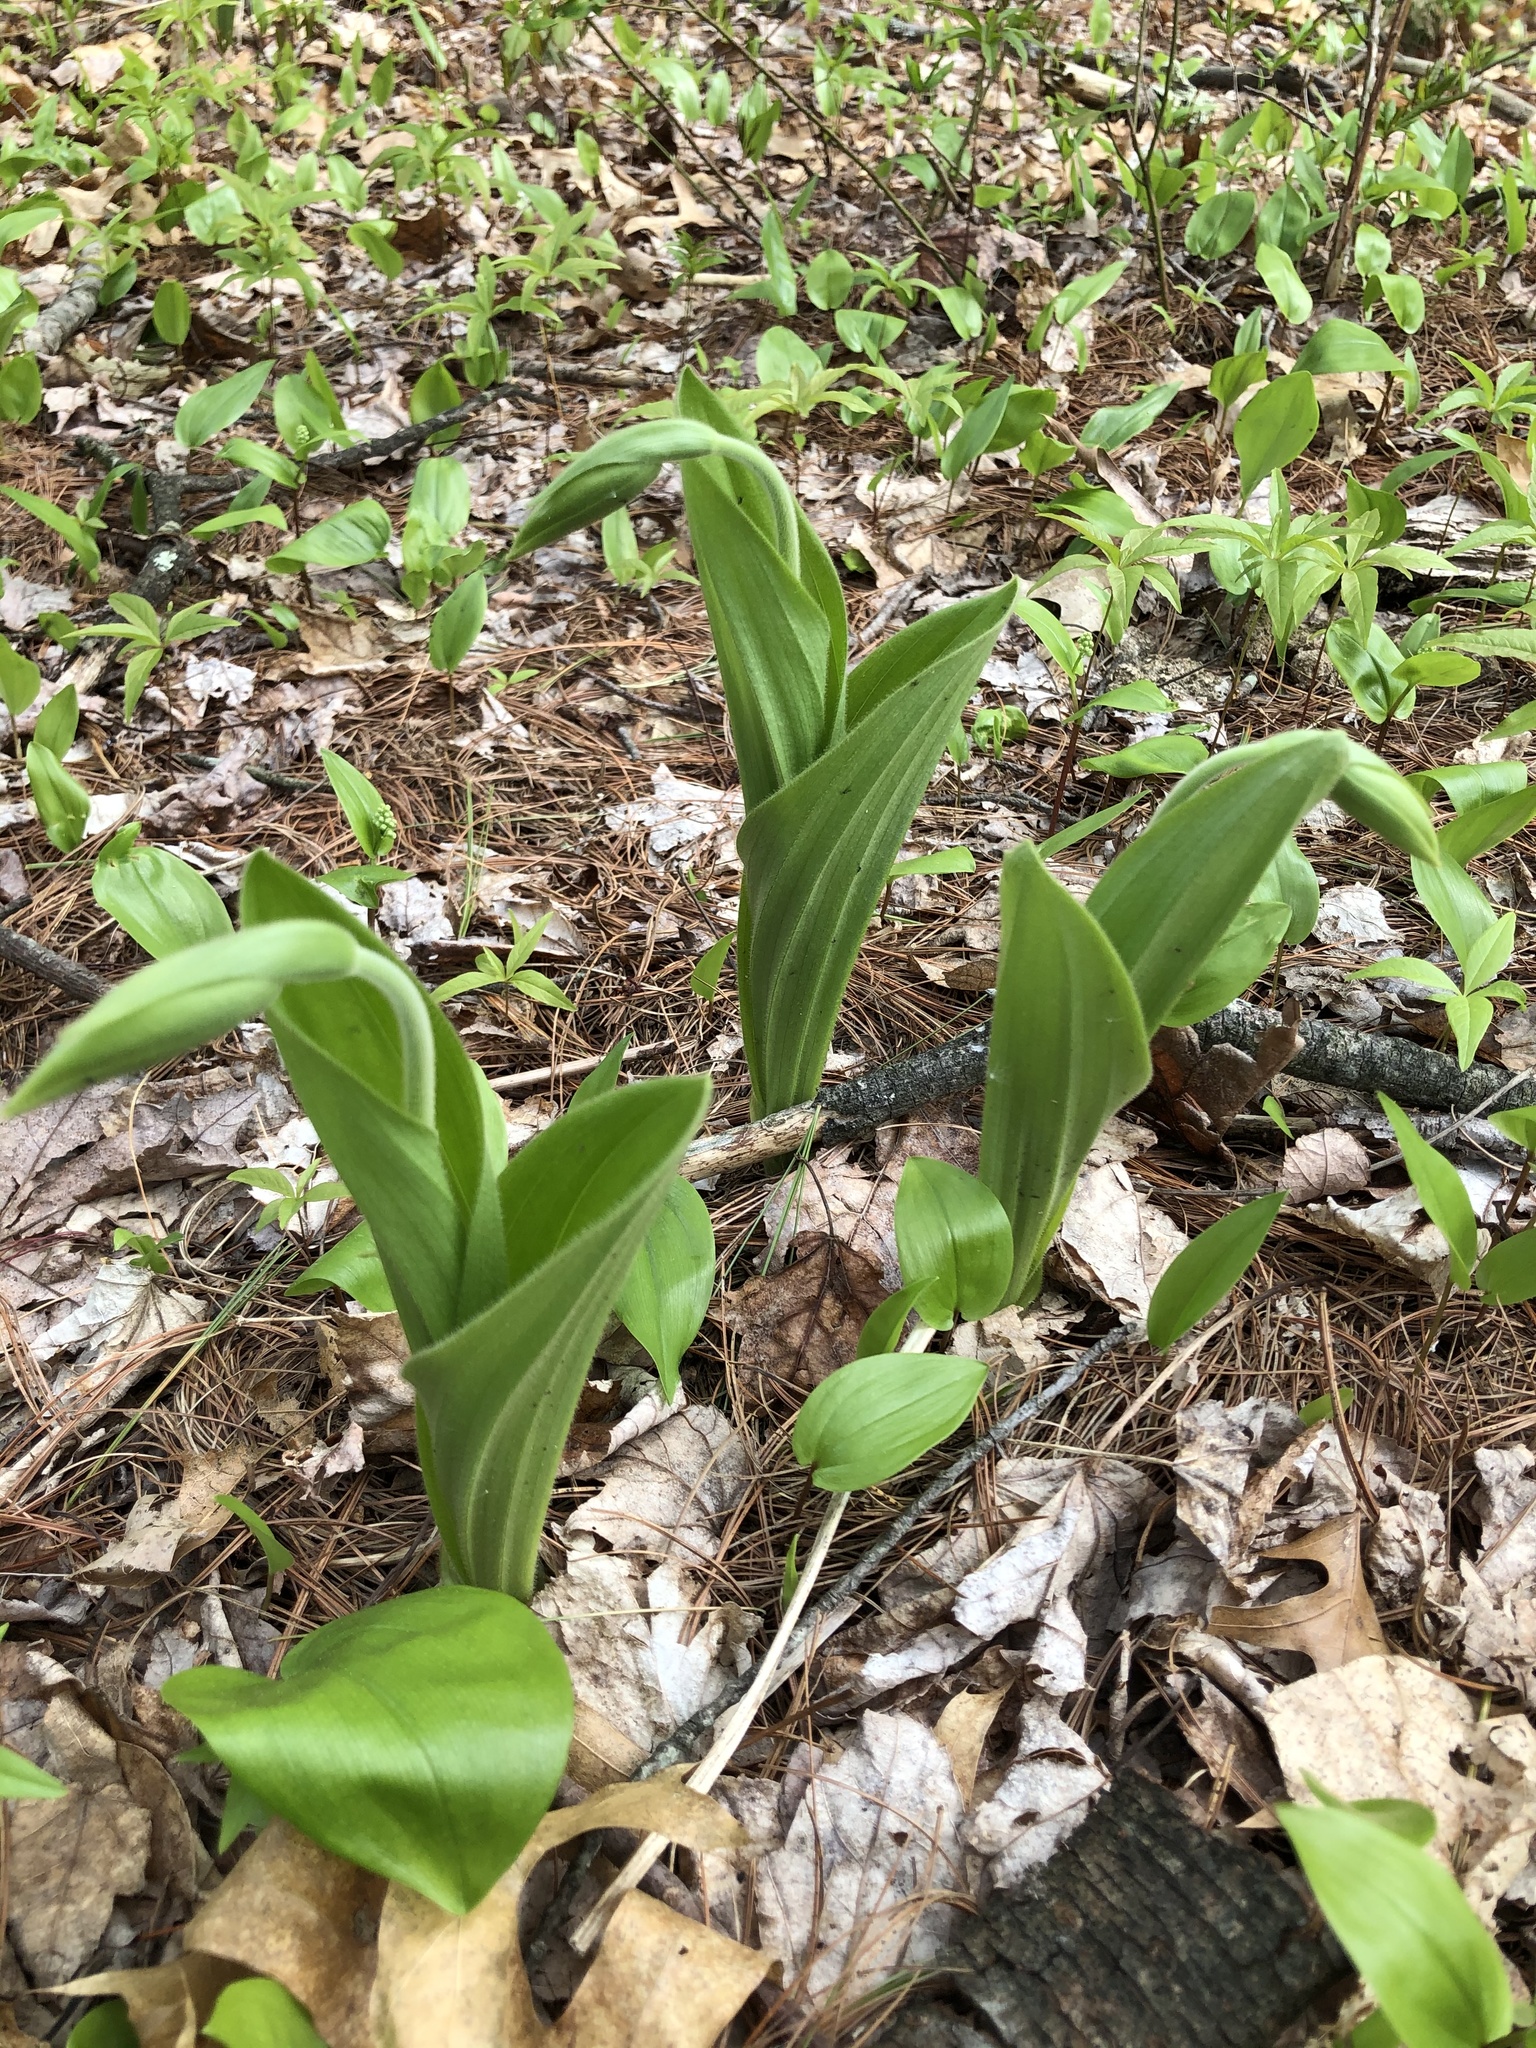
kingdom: Plantae
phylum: Tracheophyta
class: Liliopsida
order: Asparagales
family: Orchidaceae
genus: Cypripedium
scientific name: Cypripedium acaule
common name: Pink lady's-slipper
